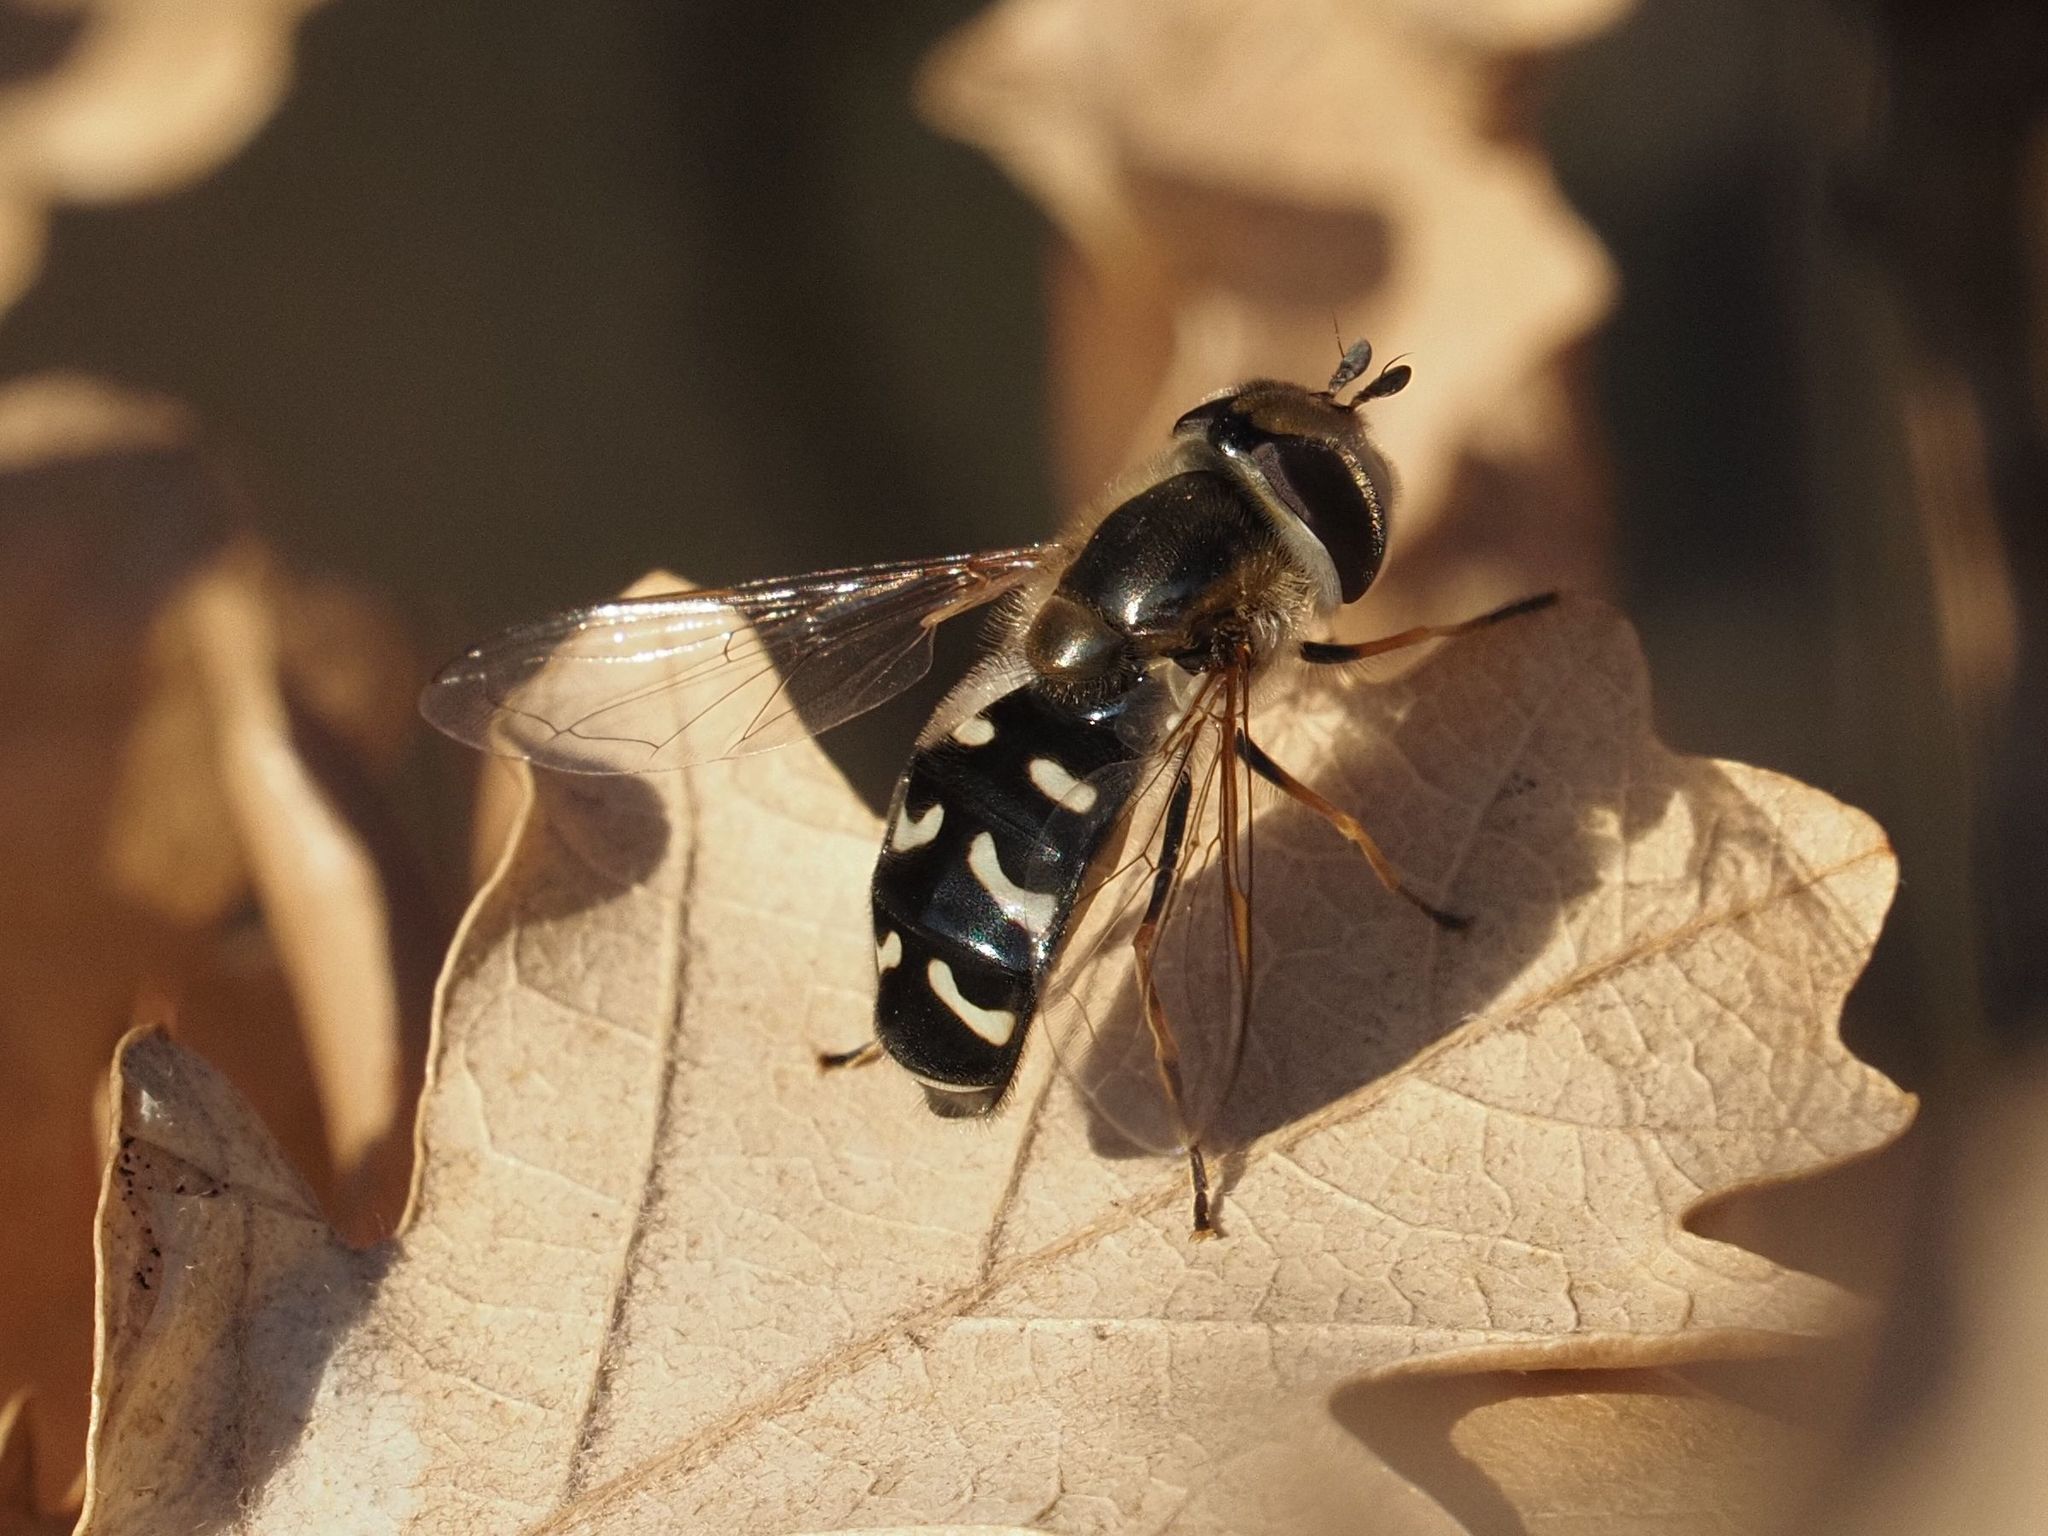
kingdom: Animalia
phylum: Arthropoda
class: Insecta
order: Diptera
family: Syrphidae
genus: Scaeva
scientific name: Scaeva pyrastri
